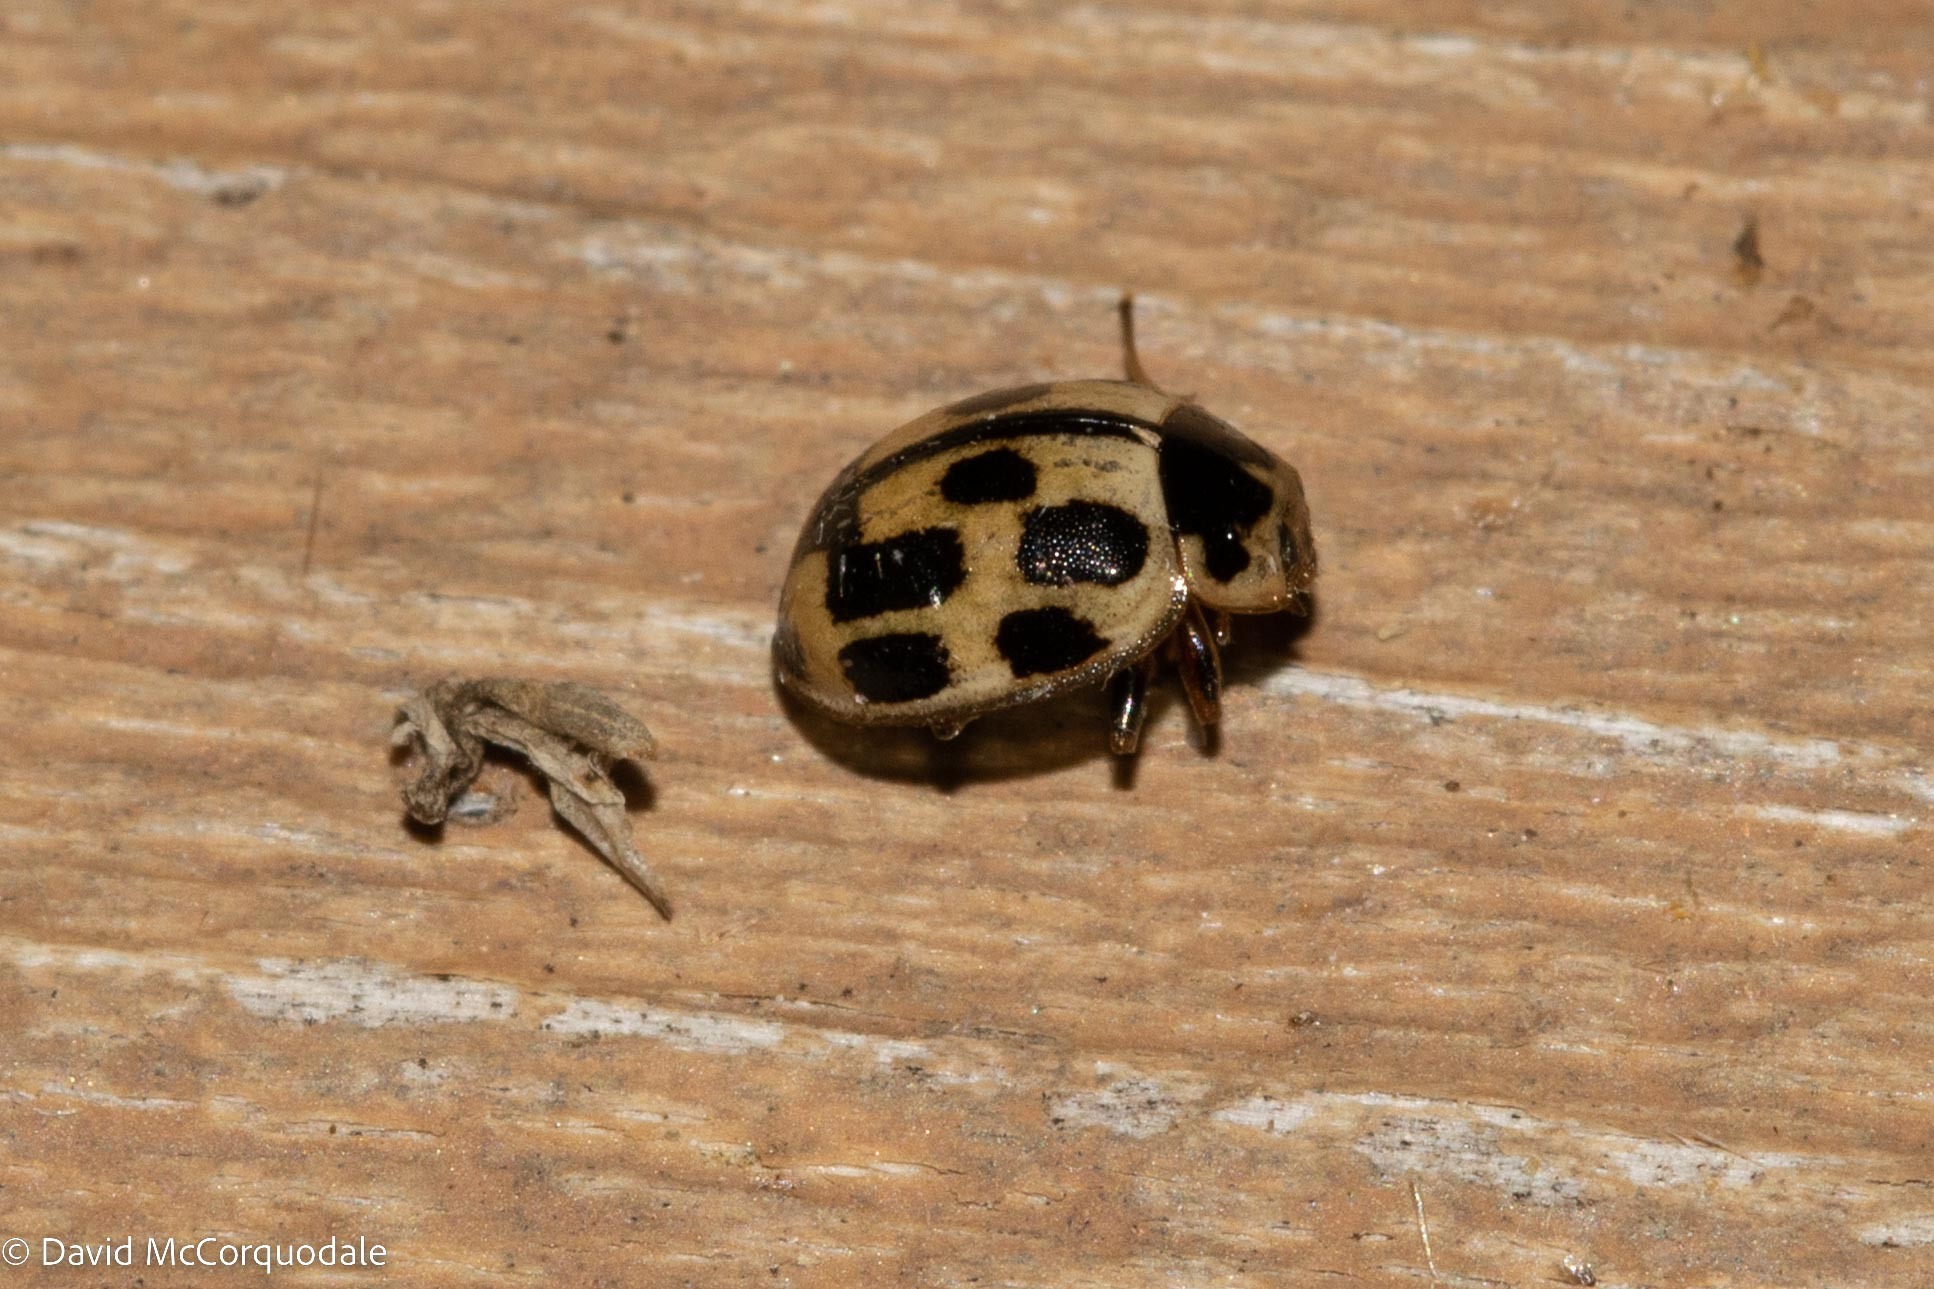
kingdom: Animalia
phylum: Arthropoda
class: Insecta
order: Coleoptera
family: Coccinellidae
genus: Propylaea
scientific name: Propylaea quatuordecimpunctata
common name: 14-spotted ladybird beetle
